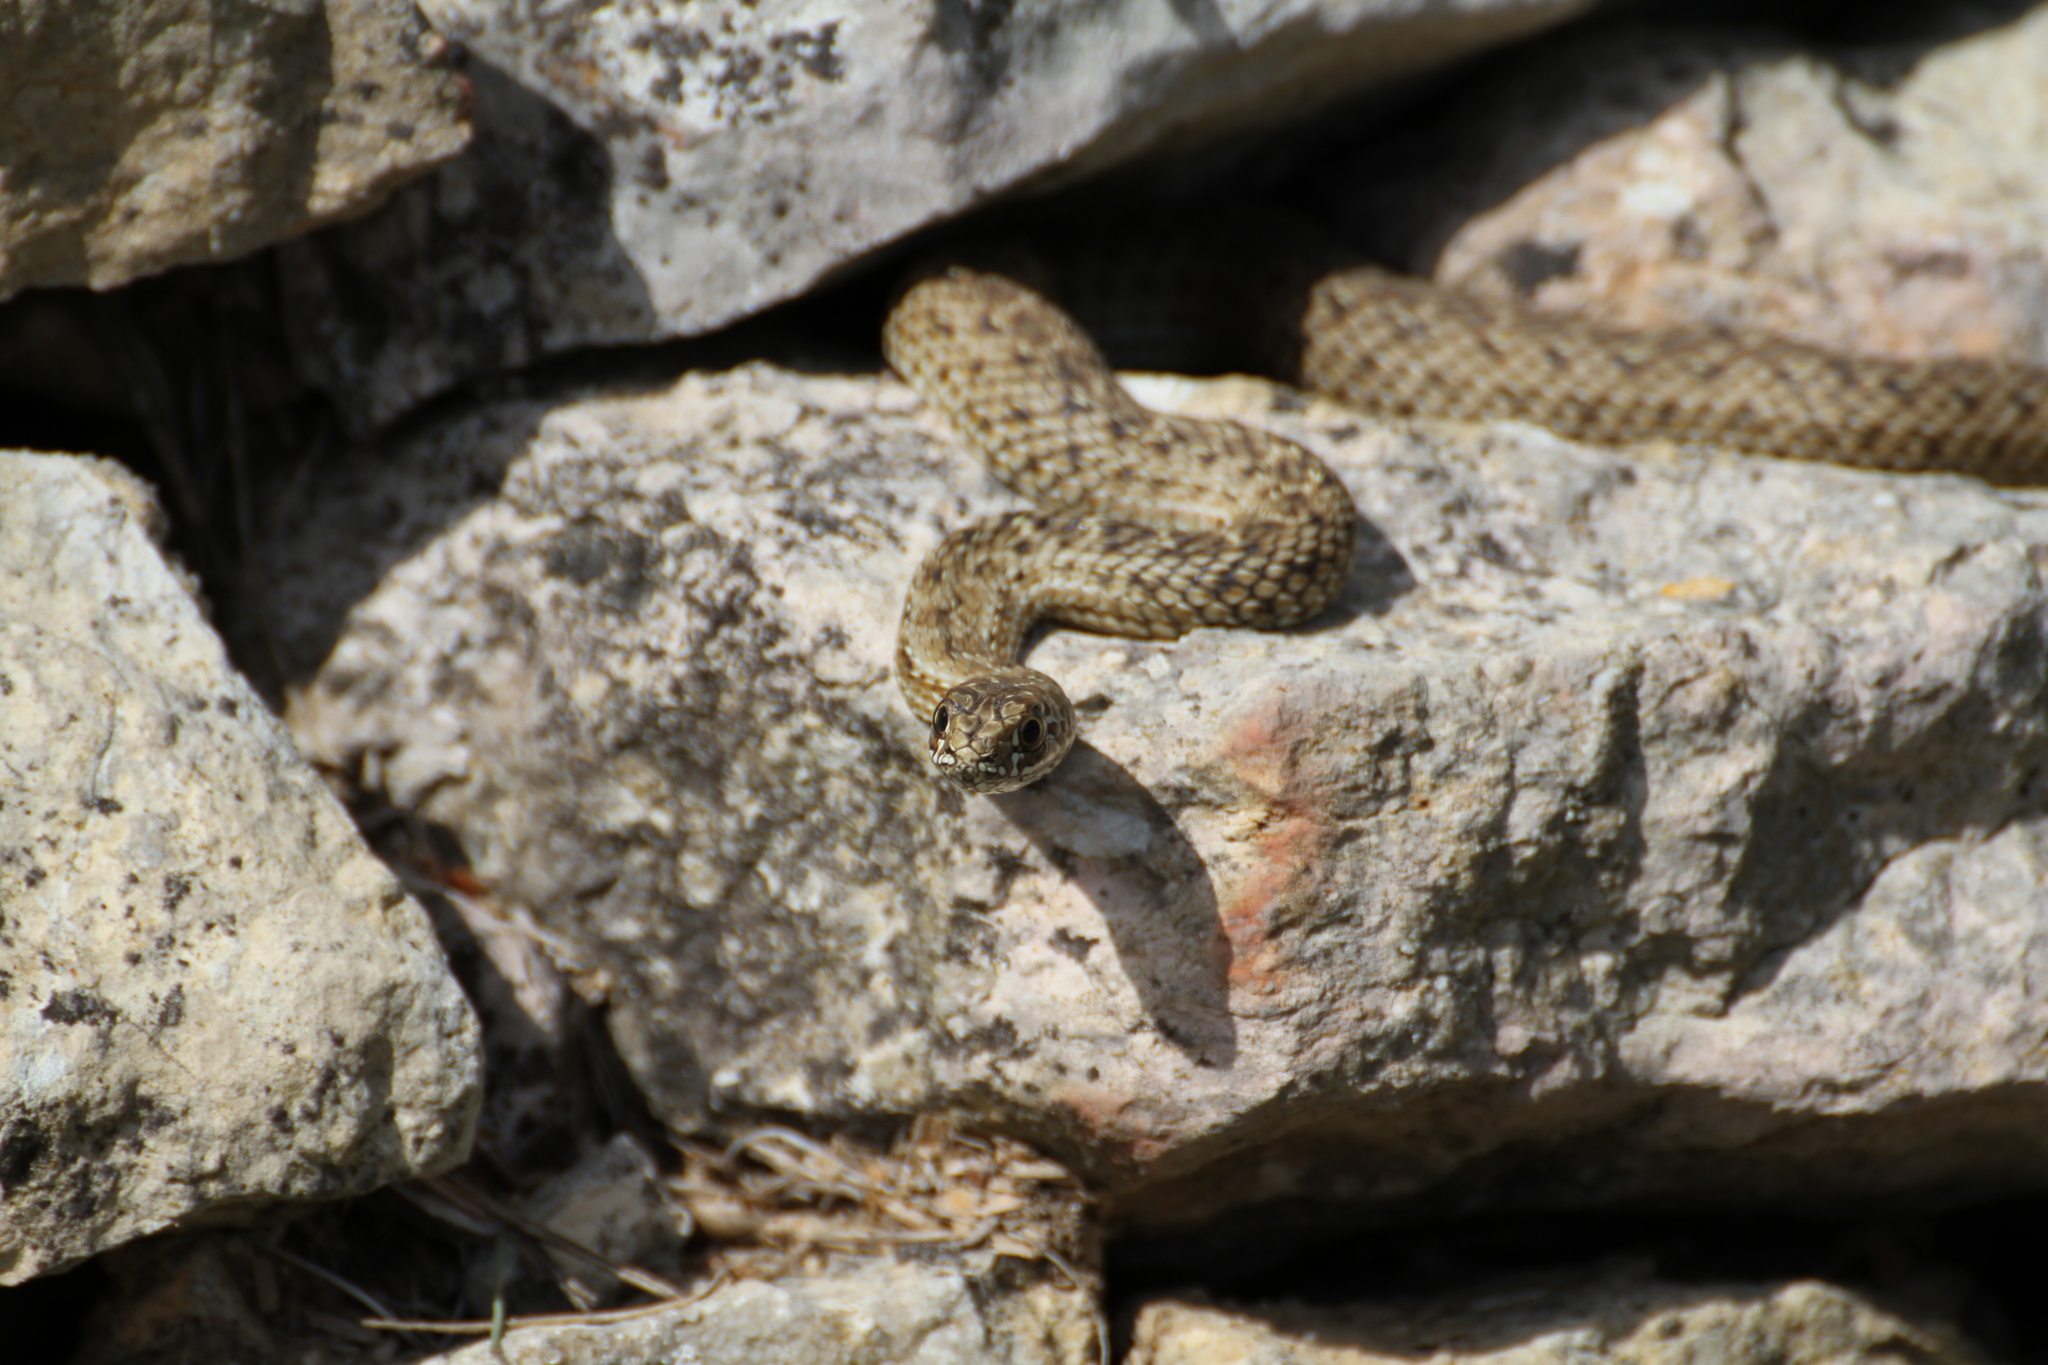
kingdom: Animalia
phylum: Chordata
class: Squamata
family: Psammophiidae
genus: Malpolon
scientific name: Malpolon monspessulanus
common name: Montpellier snake
